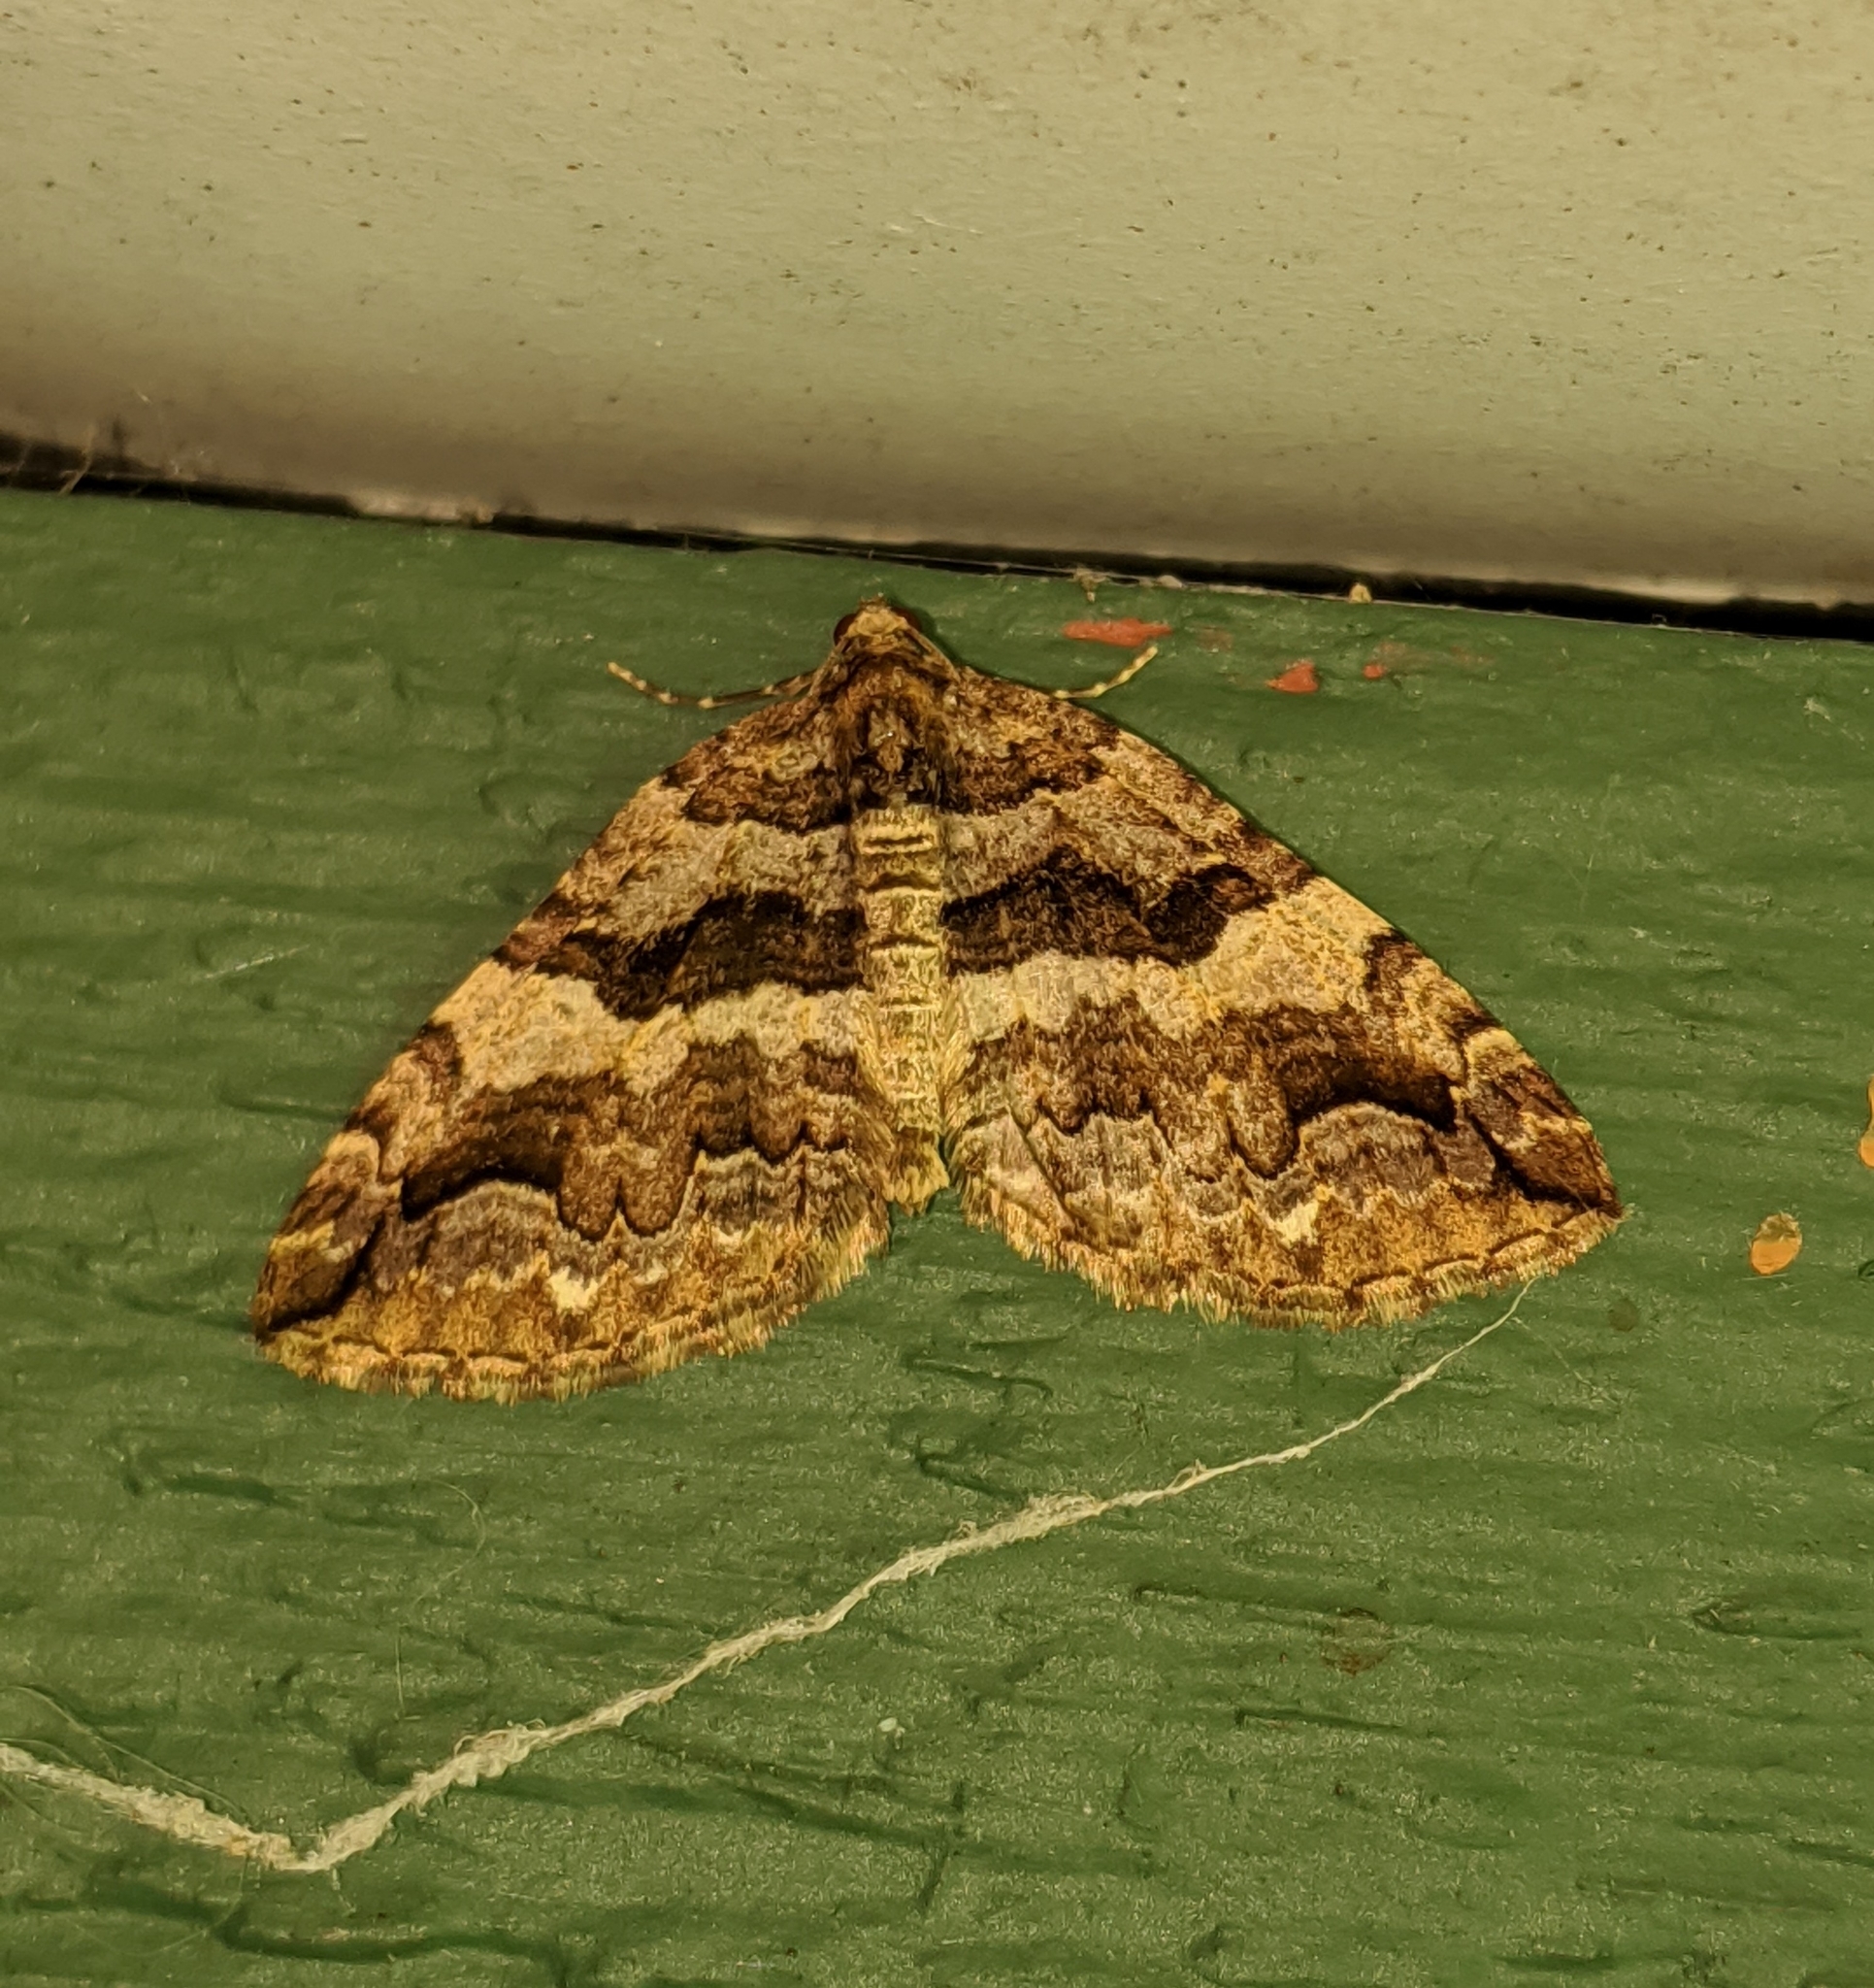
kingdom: Animalia
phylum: Arthropoda
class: Insecta
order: Lepidoptera
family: Geometridae
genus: Anticlea
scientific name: Anticlea vasiliata
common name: Variable carpet
